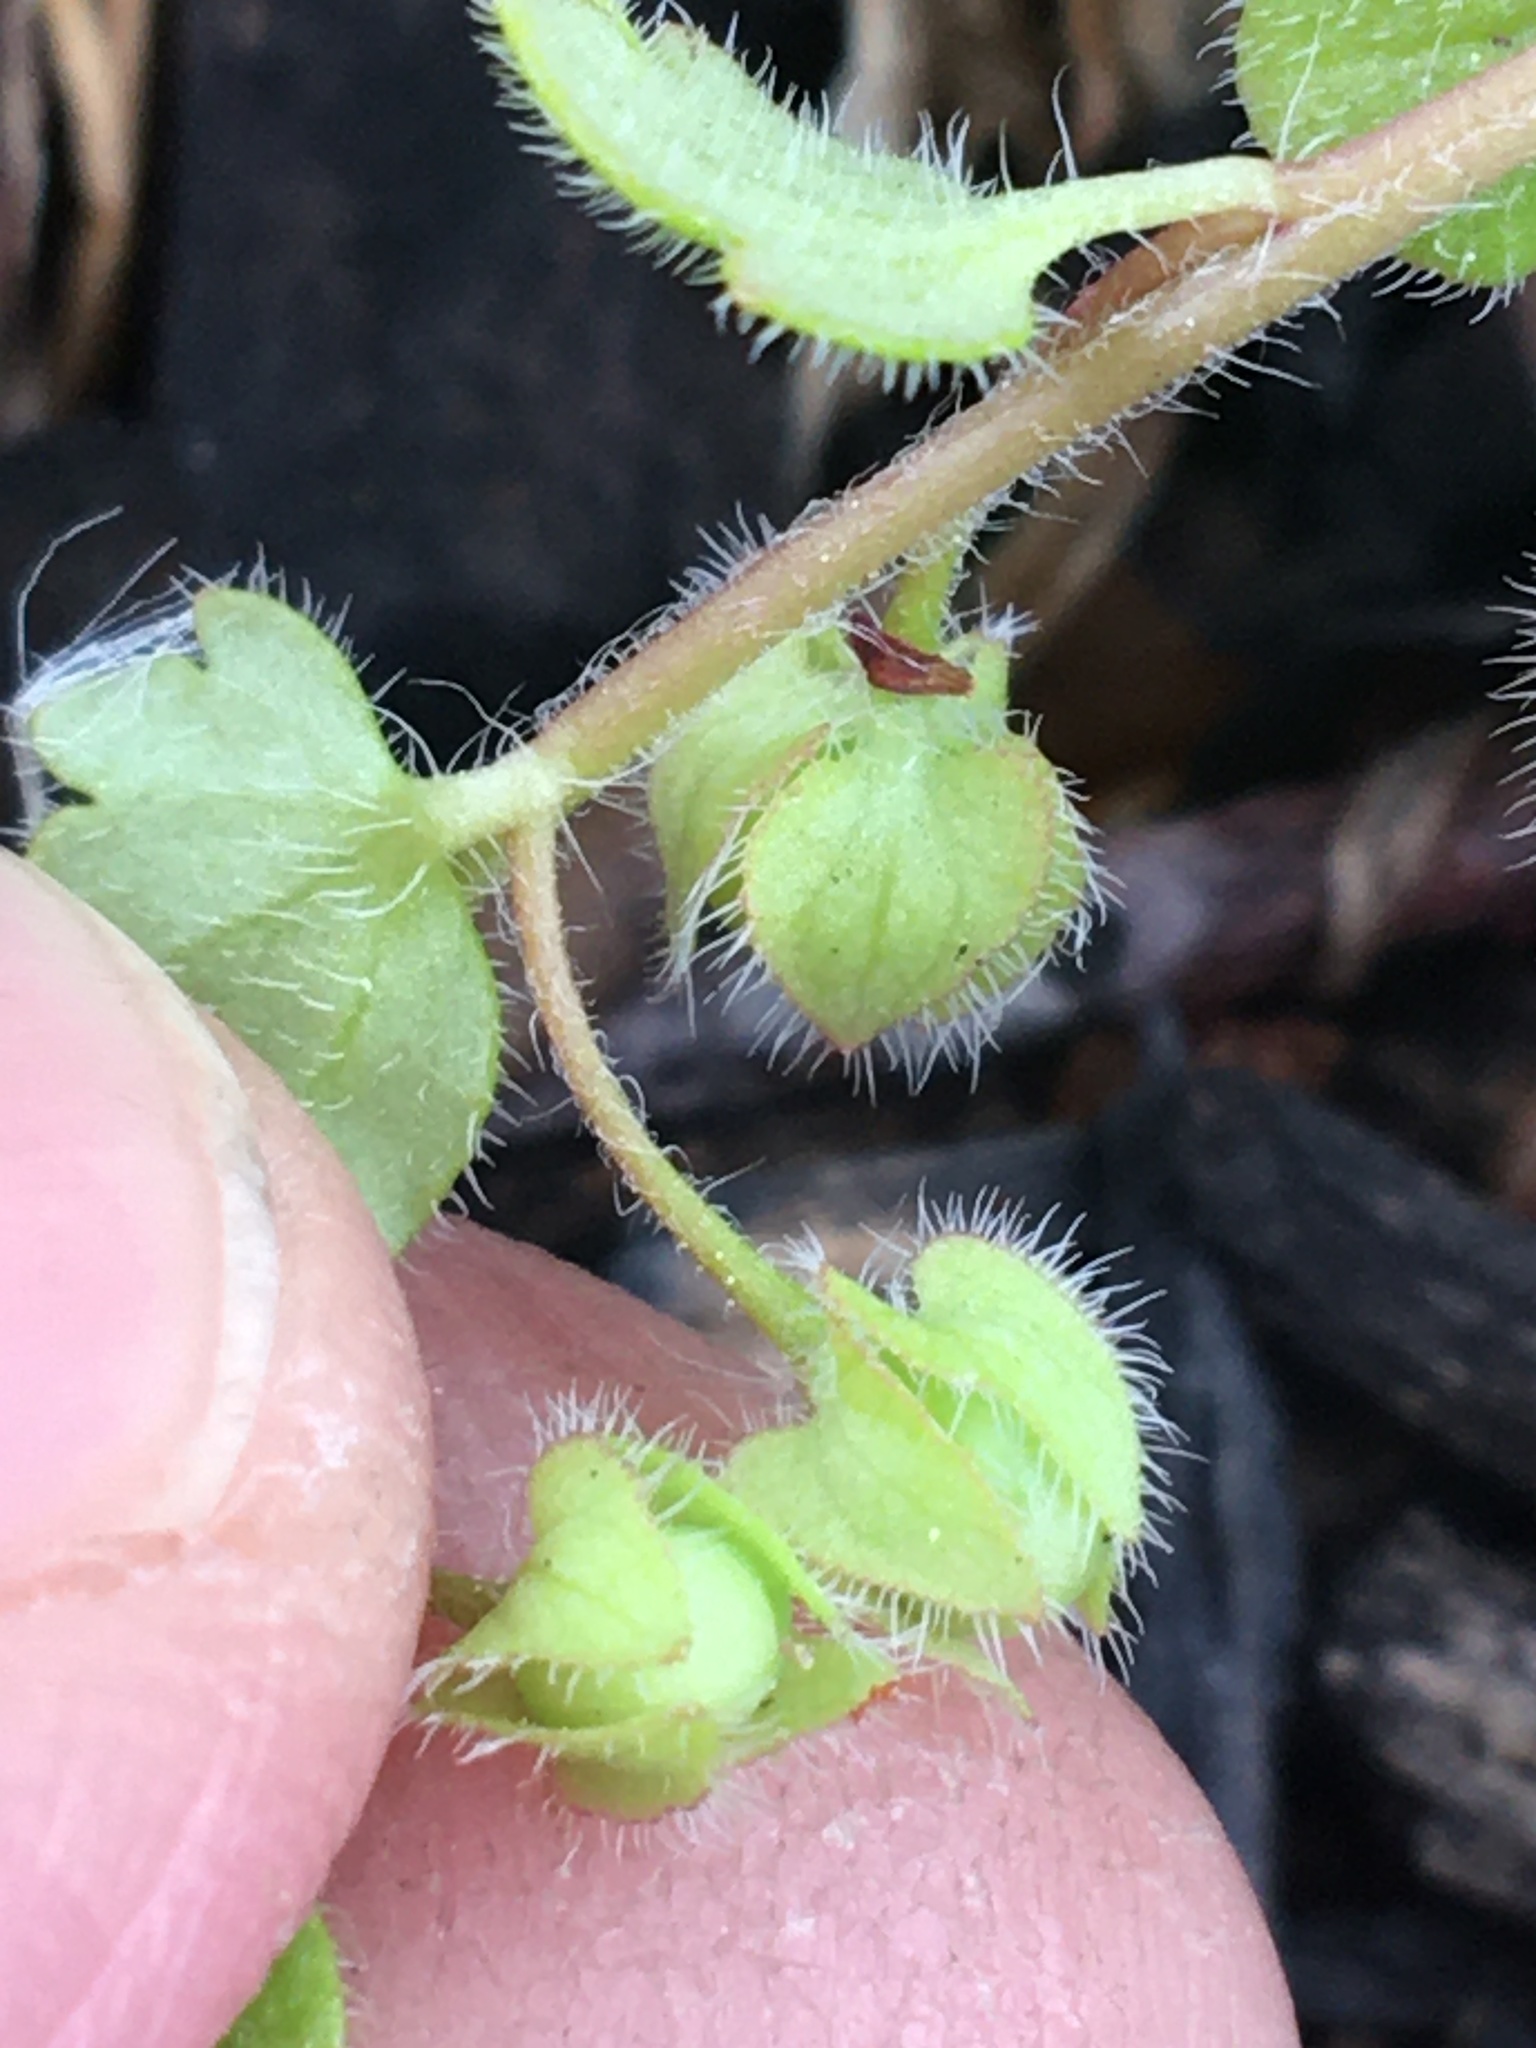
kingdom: Plantae
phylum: Tracheophyta
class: Magnoliopsida
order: Lamiales
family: Plantaginaceae
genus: Veronica
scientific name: Veronica sublobata
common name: False ivy-leaved speedwell
